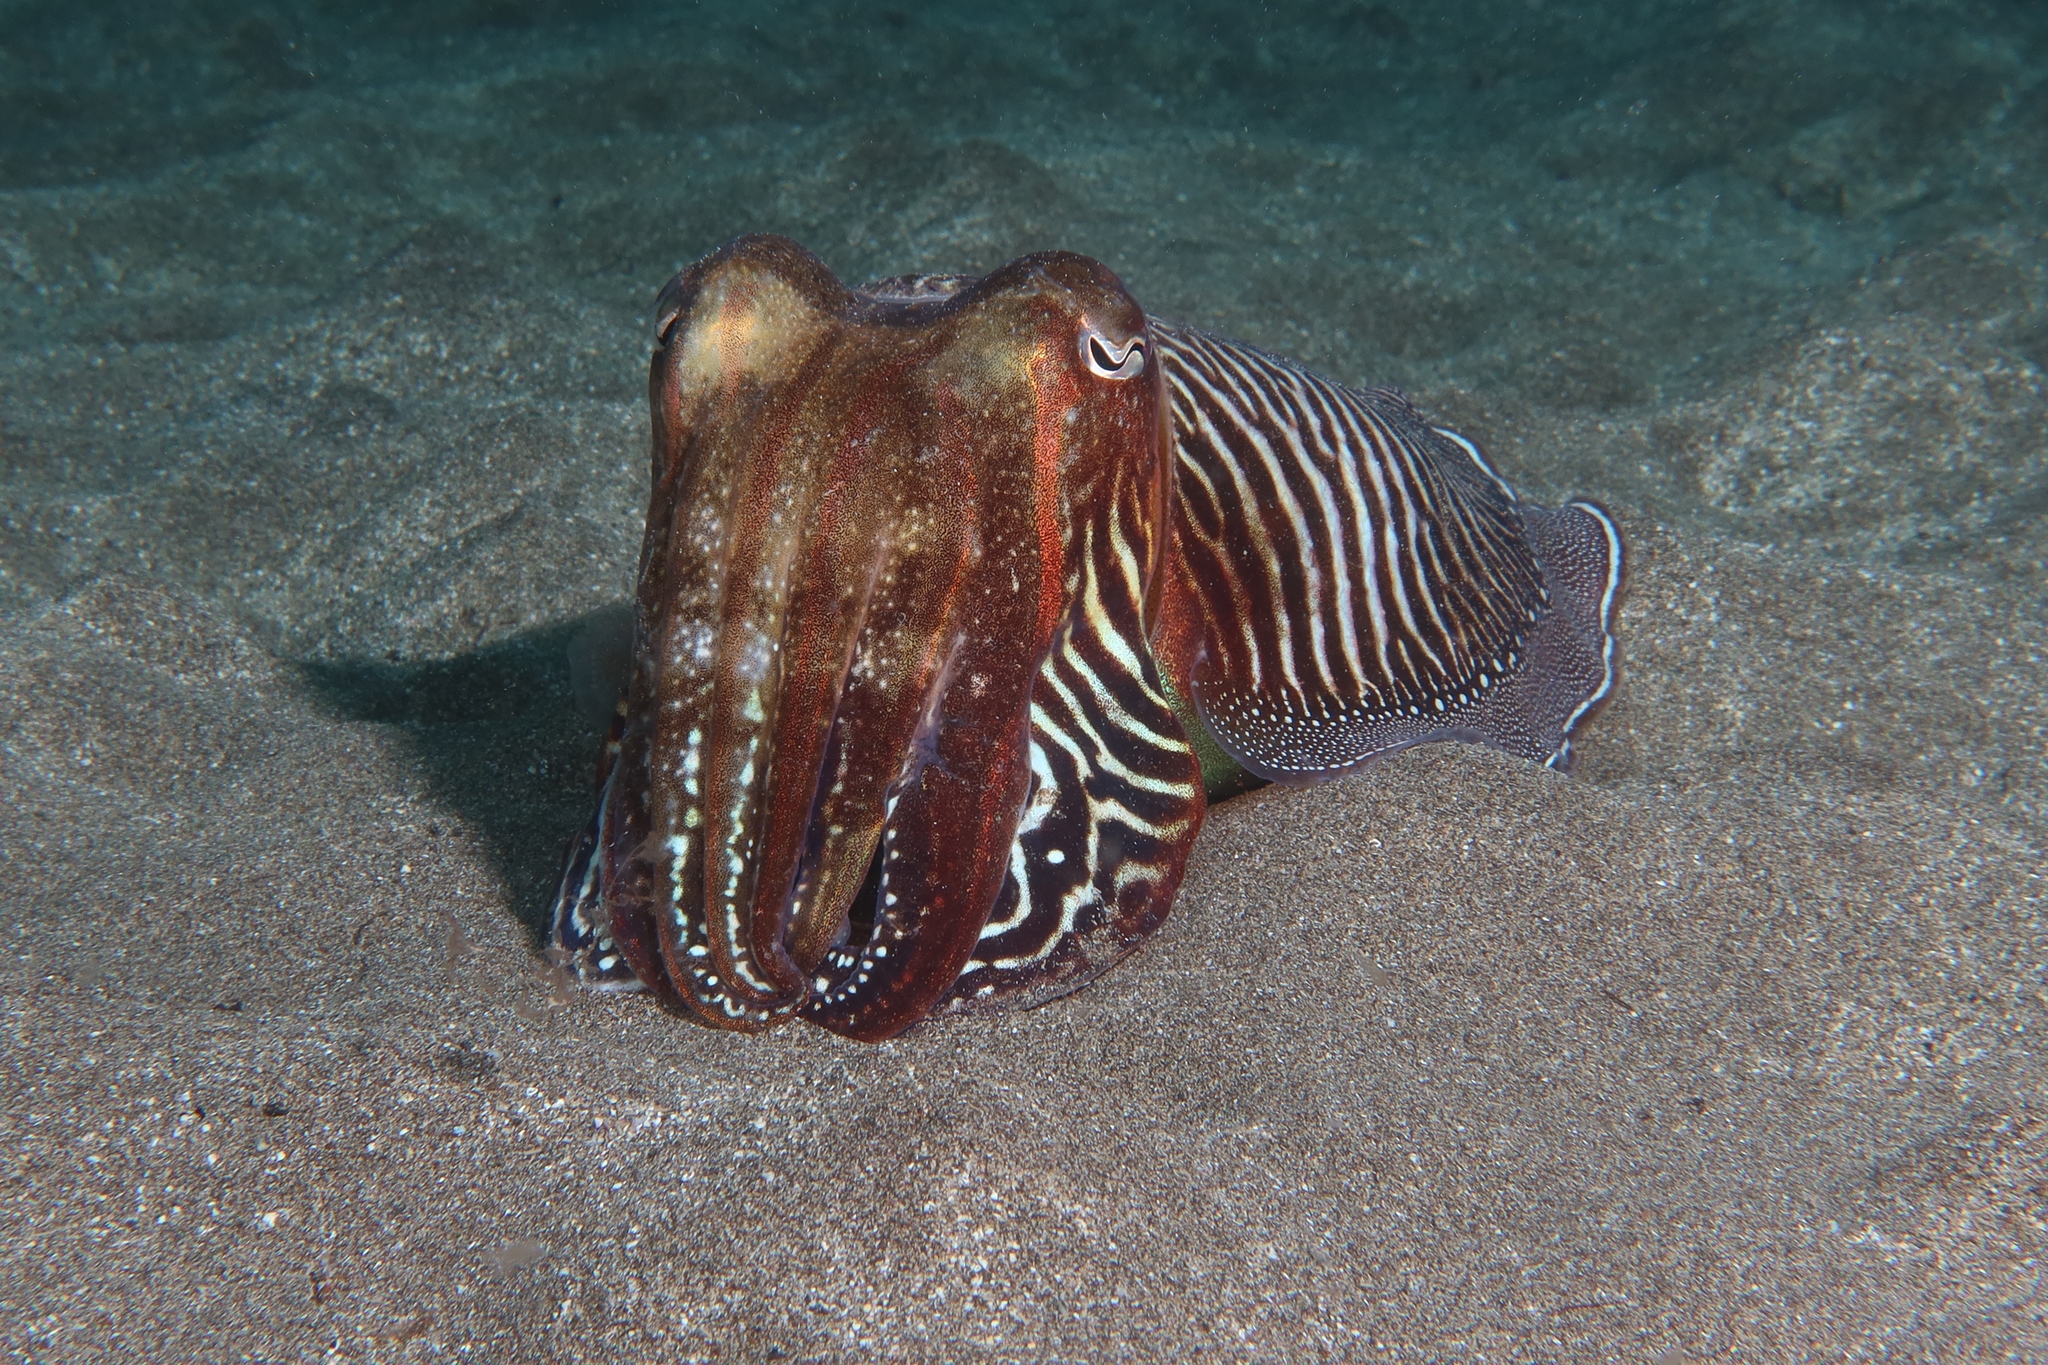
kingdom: Animalia
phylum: Mollusca
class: Cephalopoda
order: Sepiida
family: Sepiidae
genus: Sepia
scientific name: Sepia officinalis
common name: Common cuttlefish
